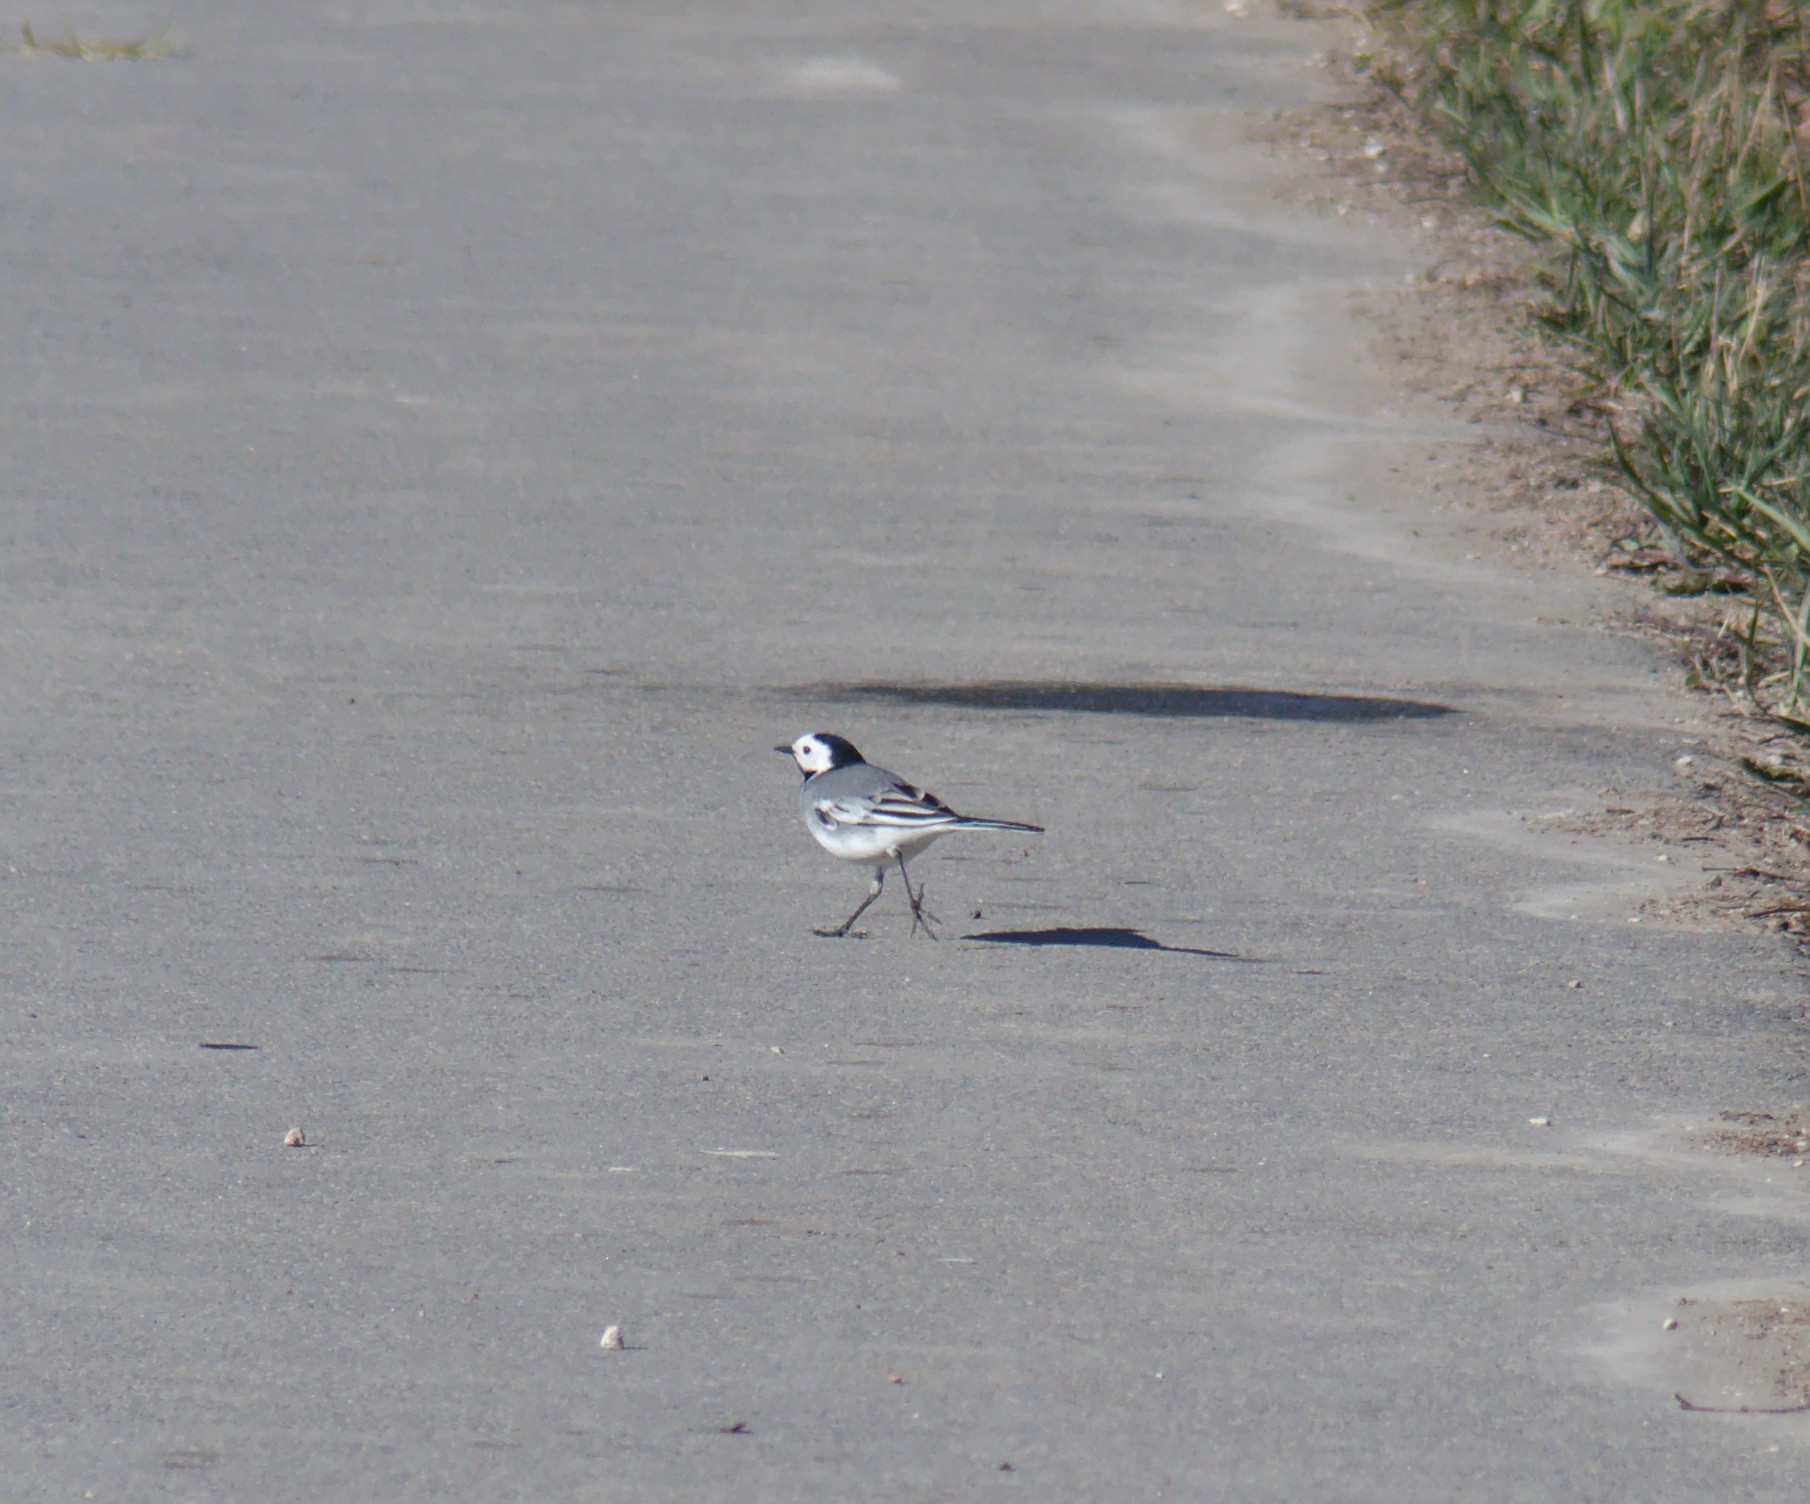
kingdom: Animalia
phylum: Chordata
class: Aves
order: Passeriformes
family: Motacillidae
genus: Motacilla
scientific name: Motacilla alba
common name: White wagtail
